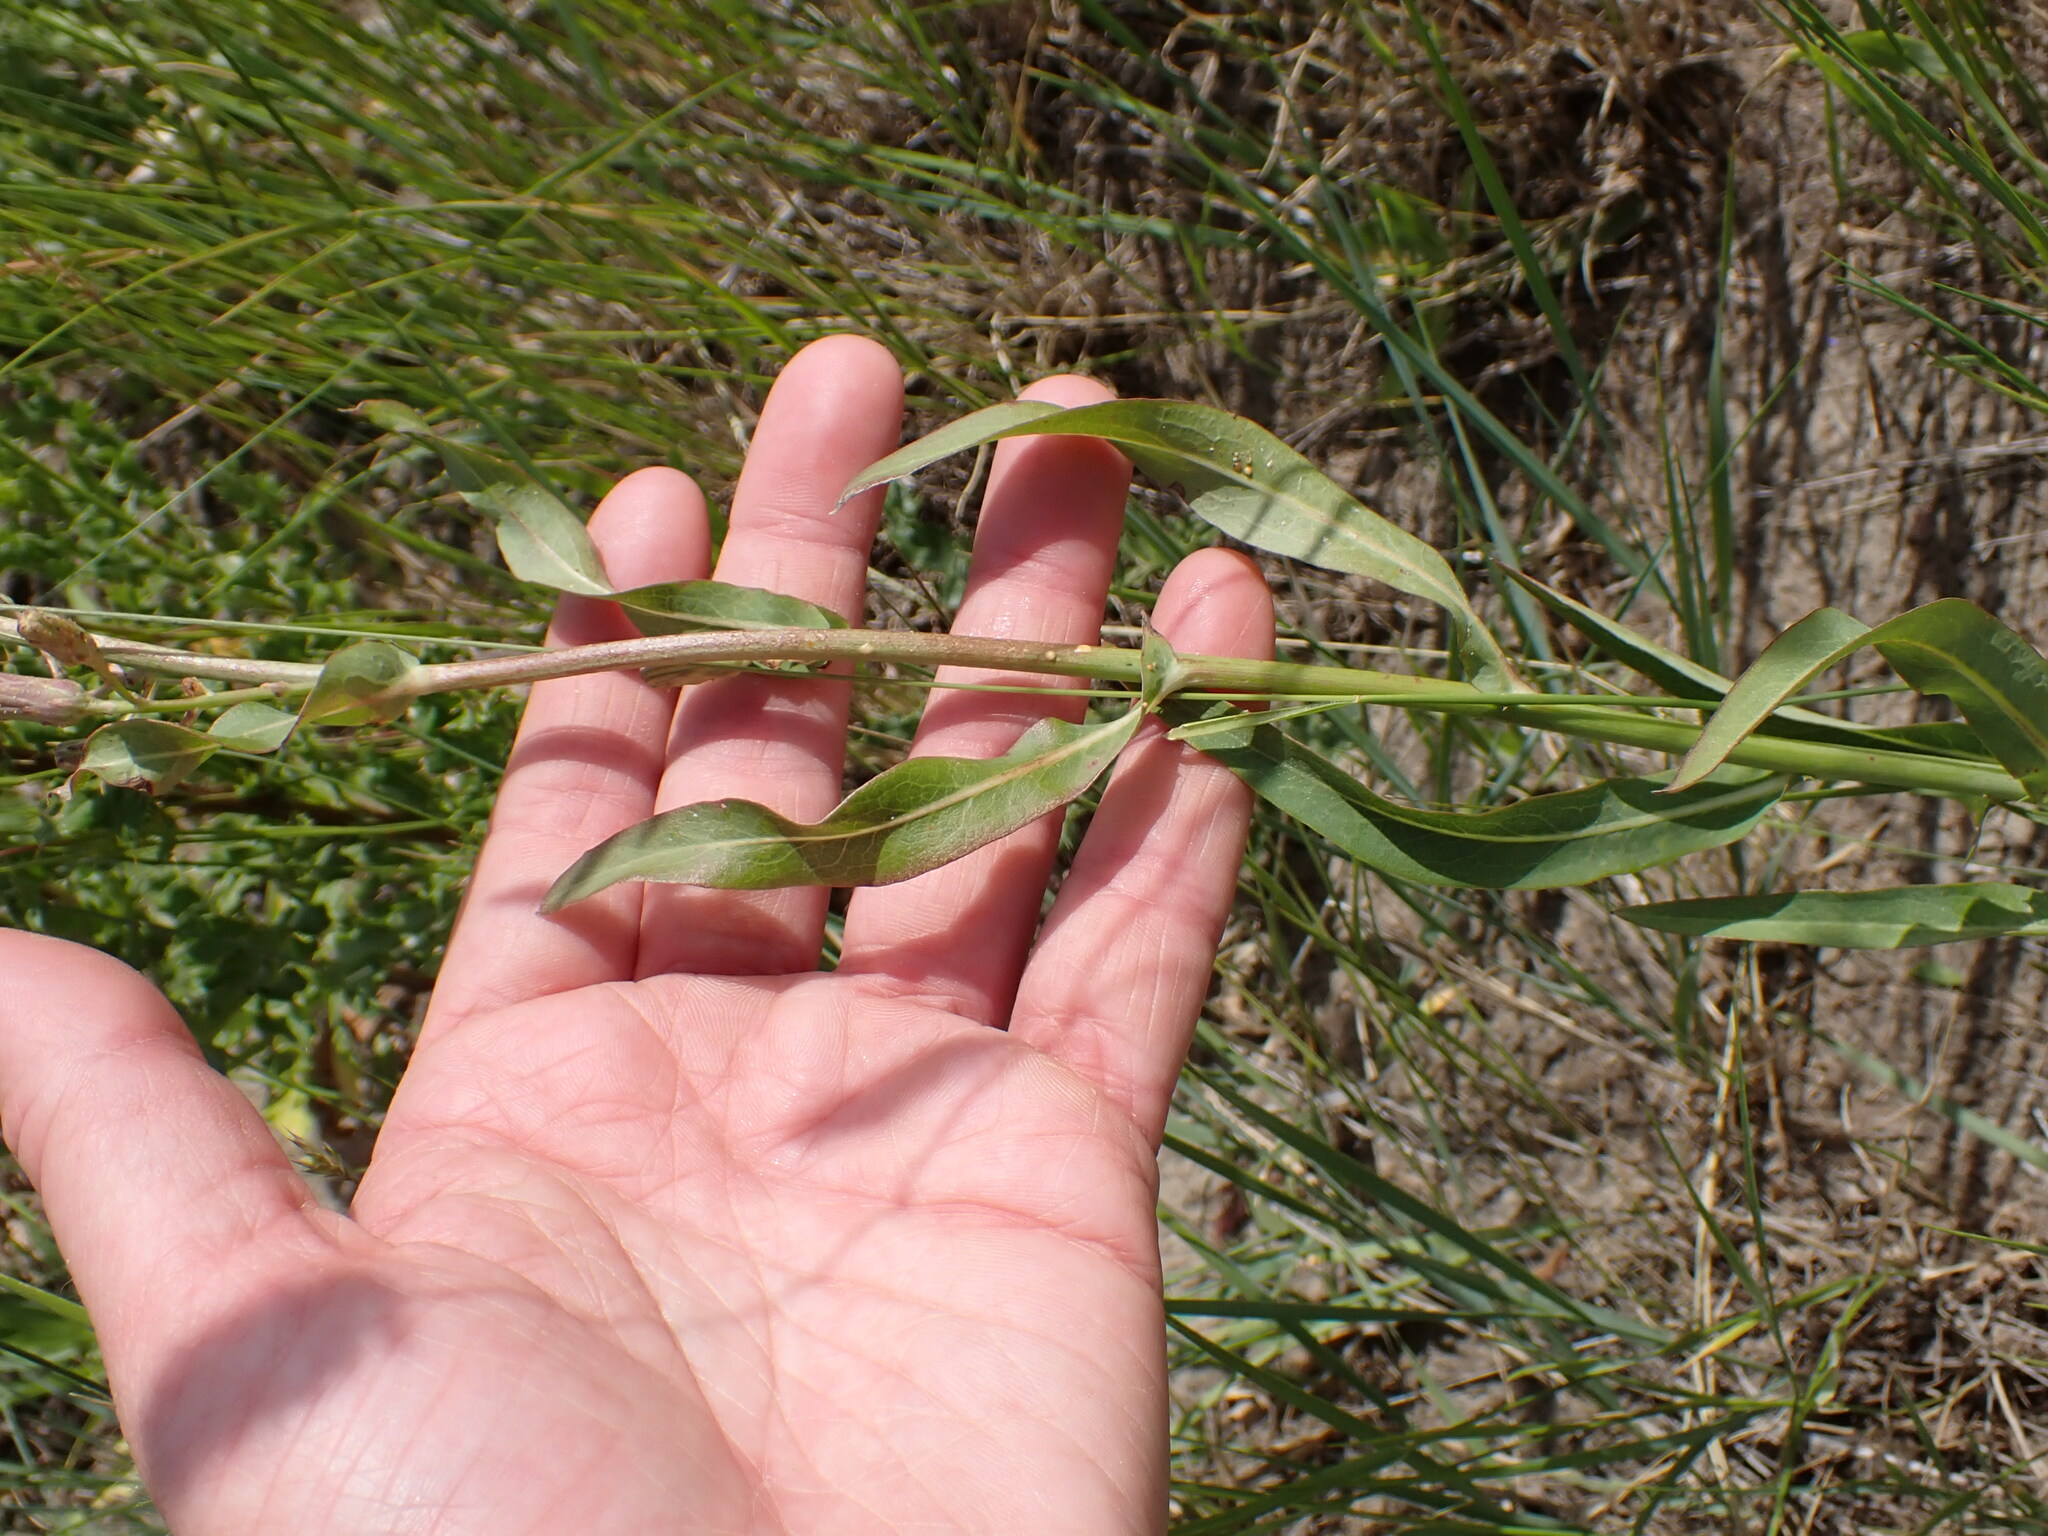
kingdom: Plantae
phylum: Tracheophyta
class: Magnoliopsida
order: Asterales
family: Asteraceae
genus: Lactuca
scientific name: Lactuca pulchella
